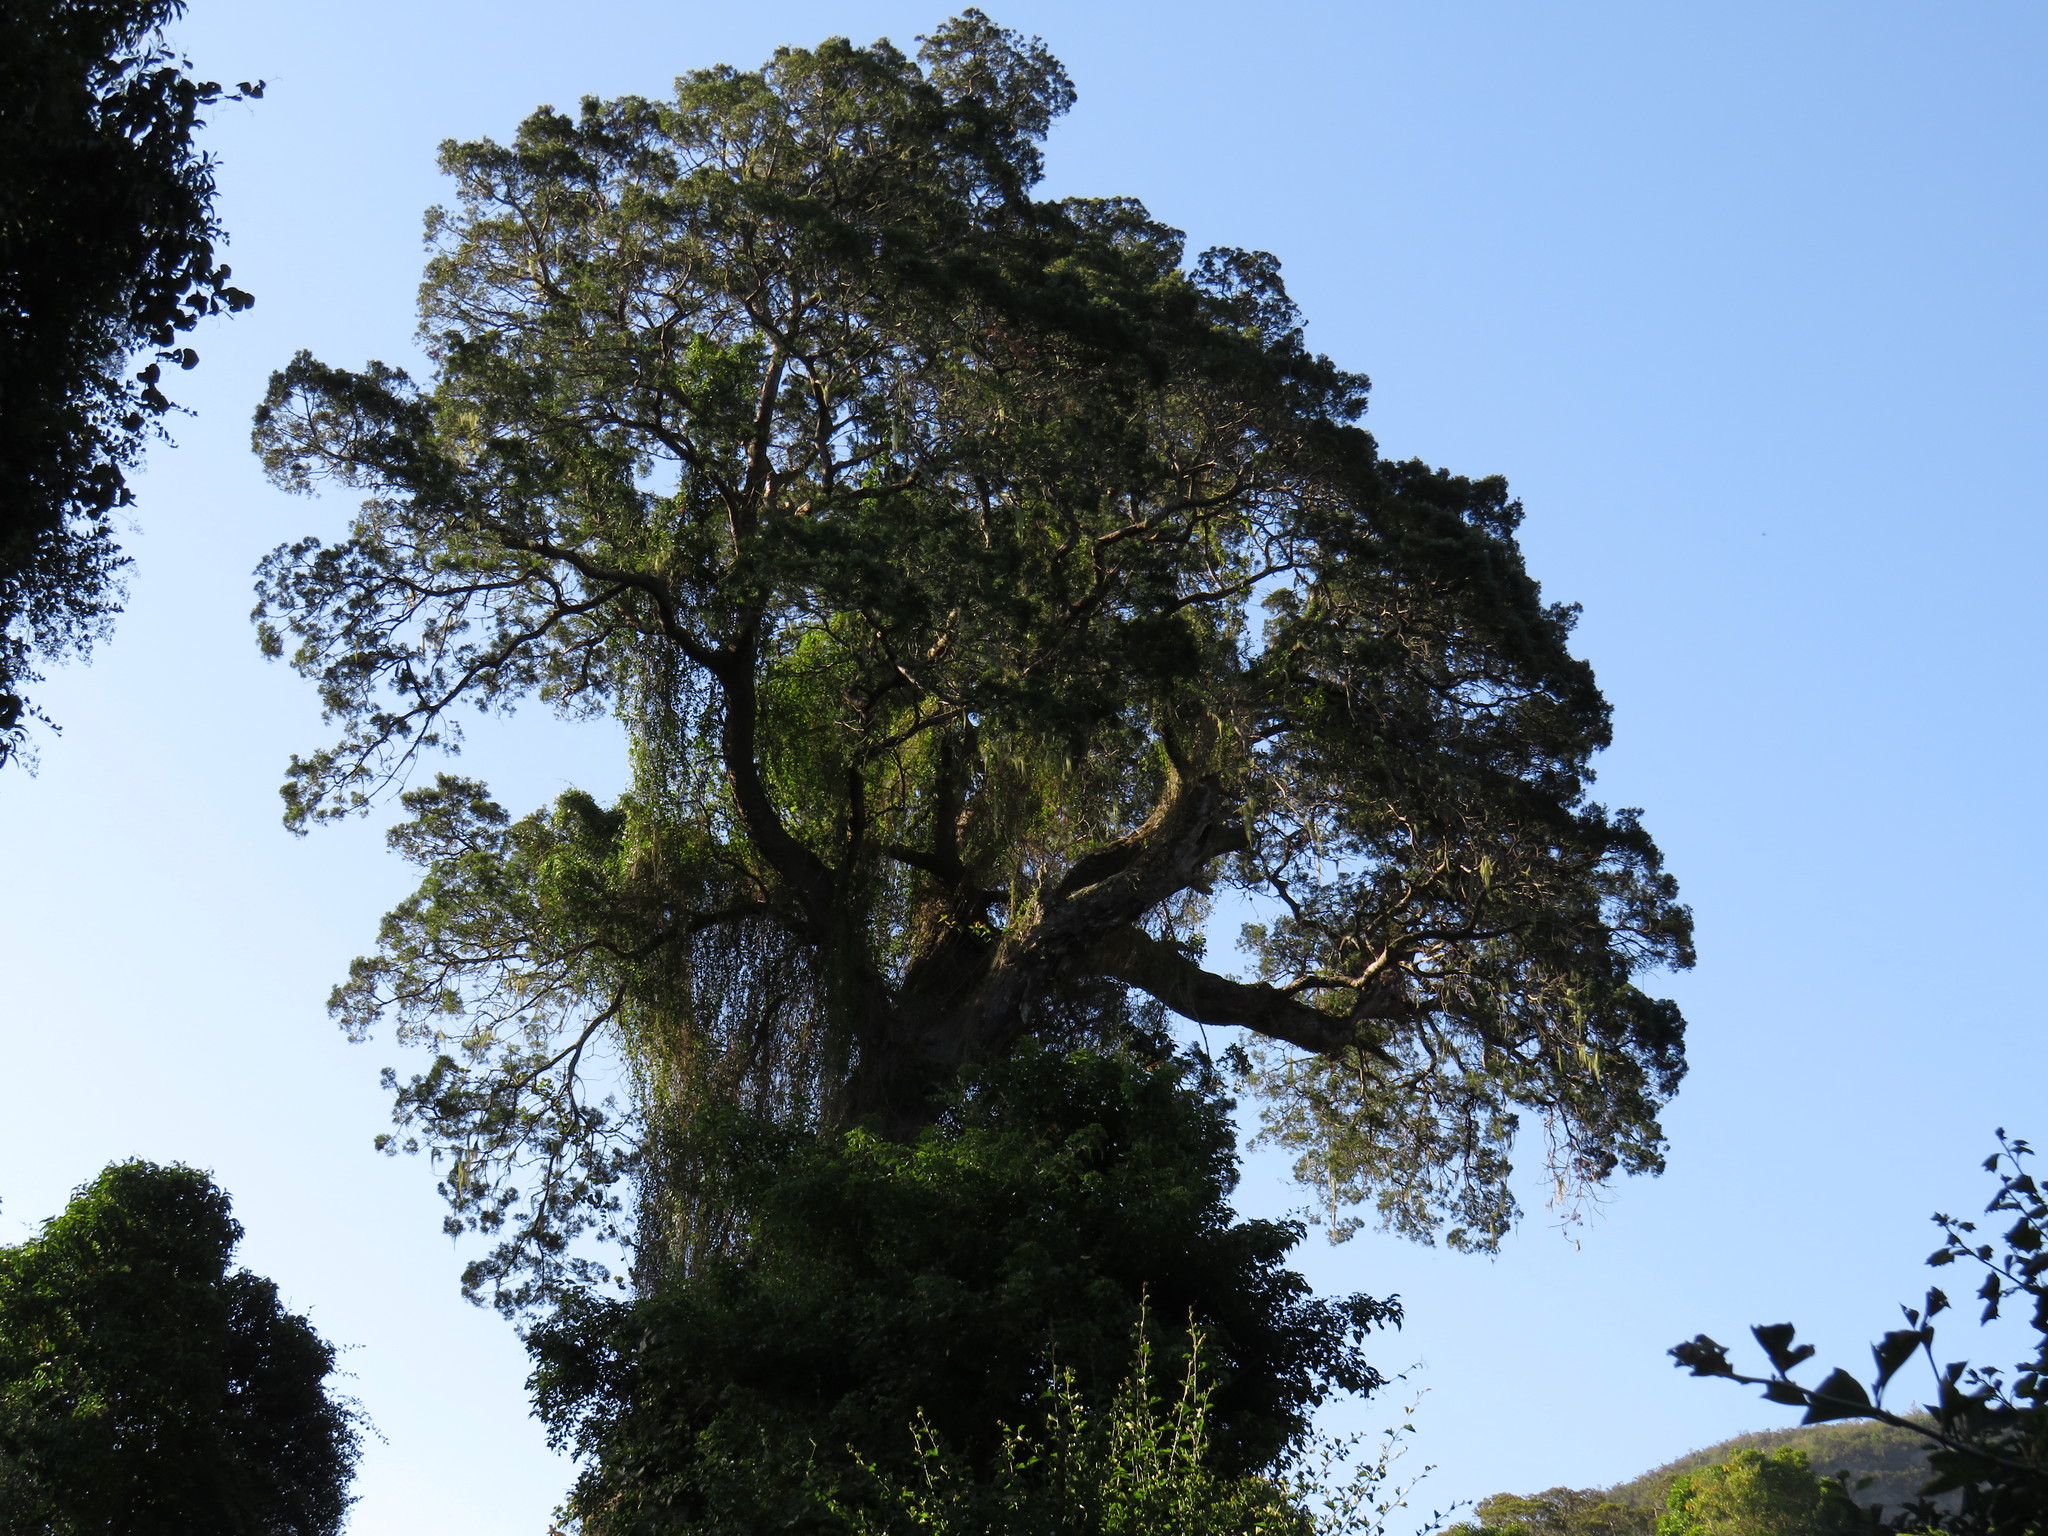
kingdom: Plantae
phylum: Tracheophyta
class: Pinopsida
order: Pinales
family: Podocarpaceae
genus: Afrocarpus
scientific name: Afrocarpus falcatus
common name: Bastard yellowwood
